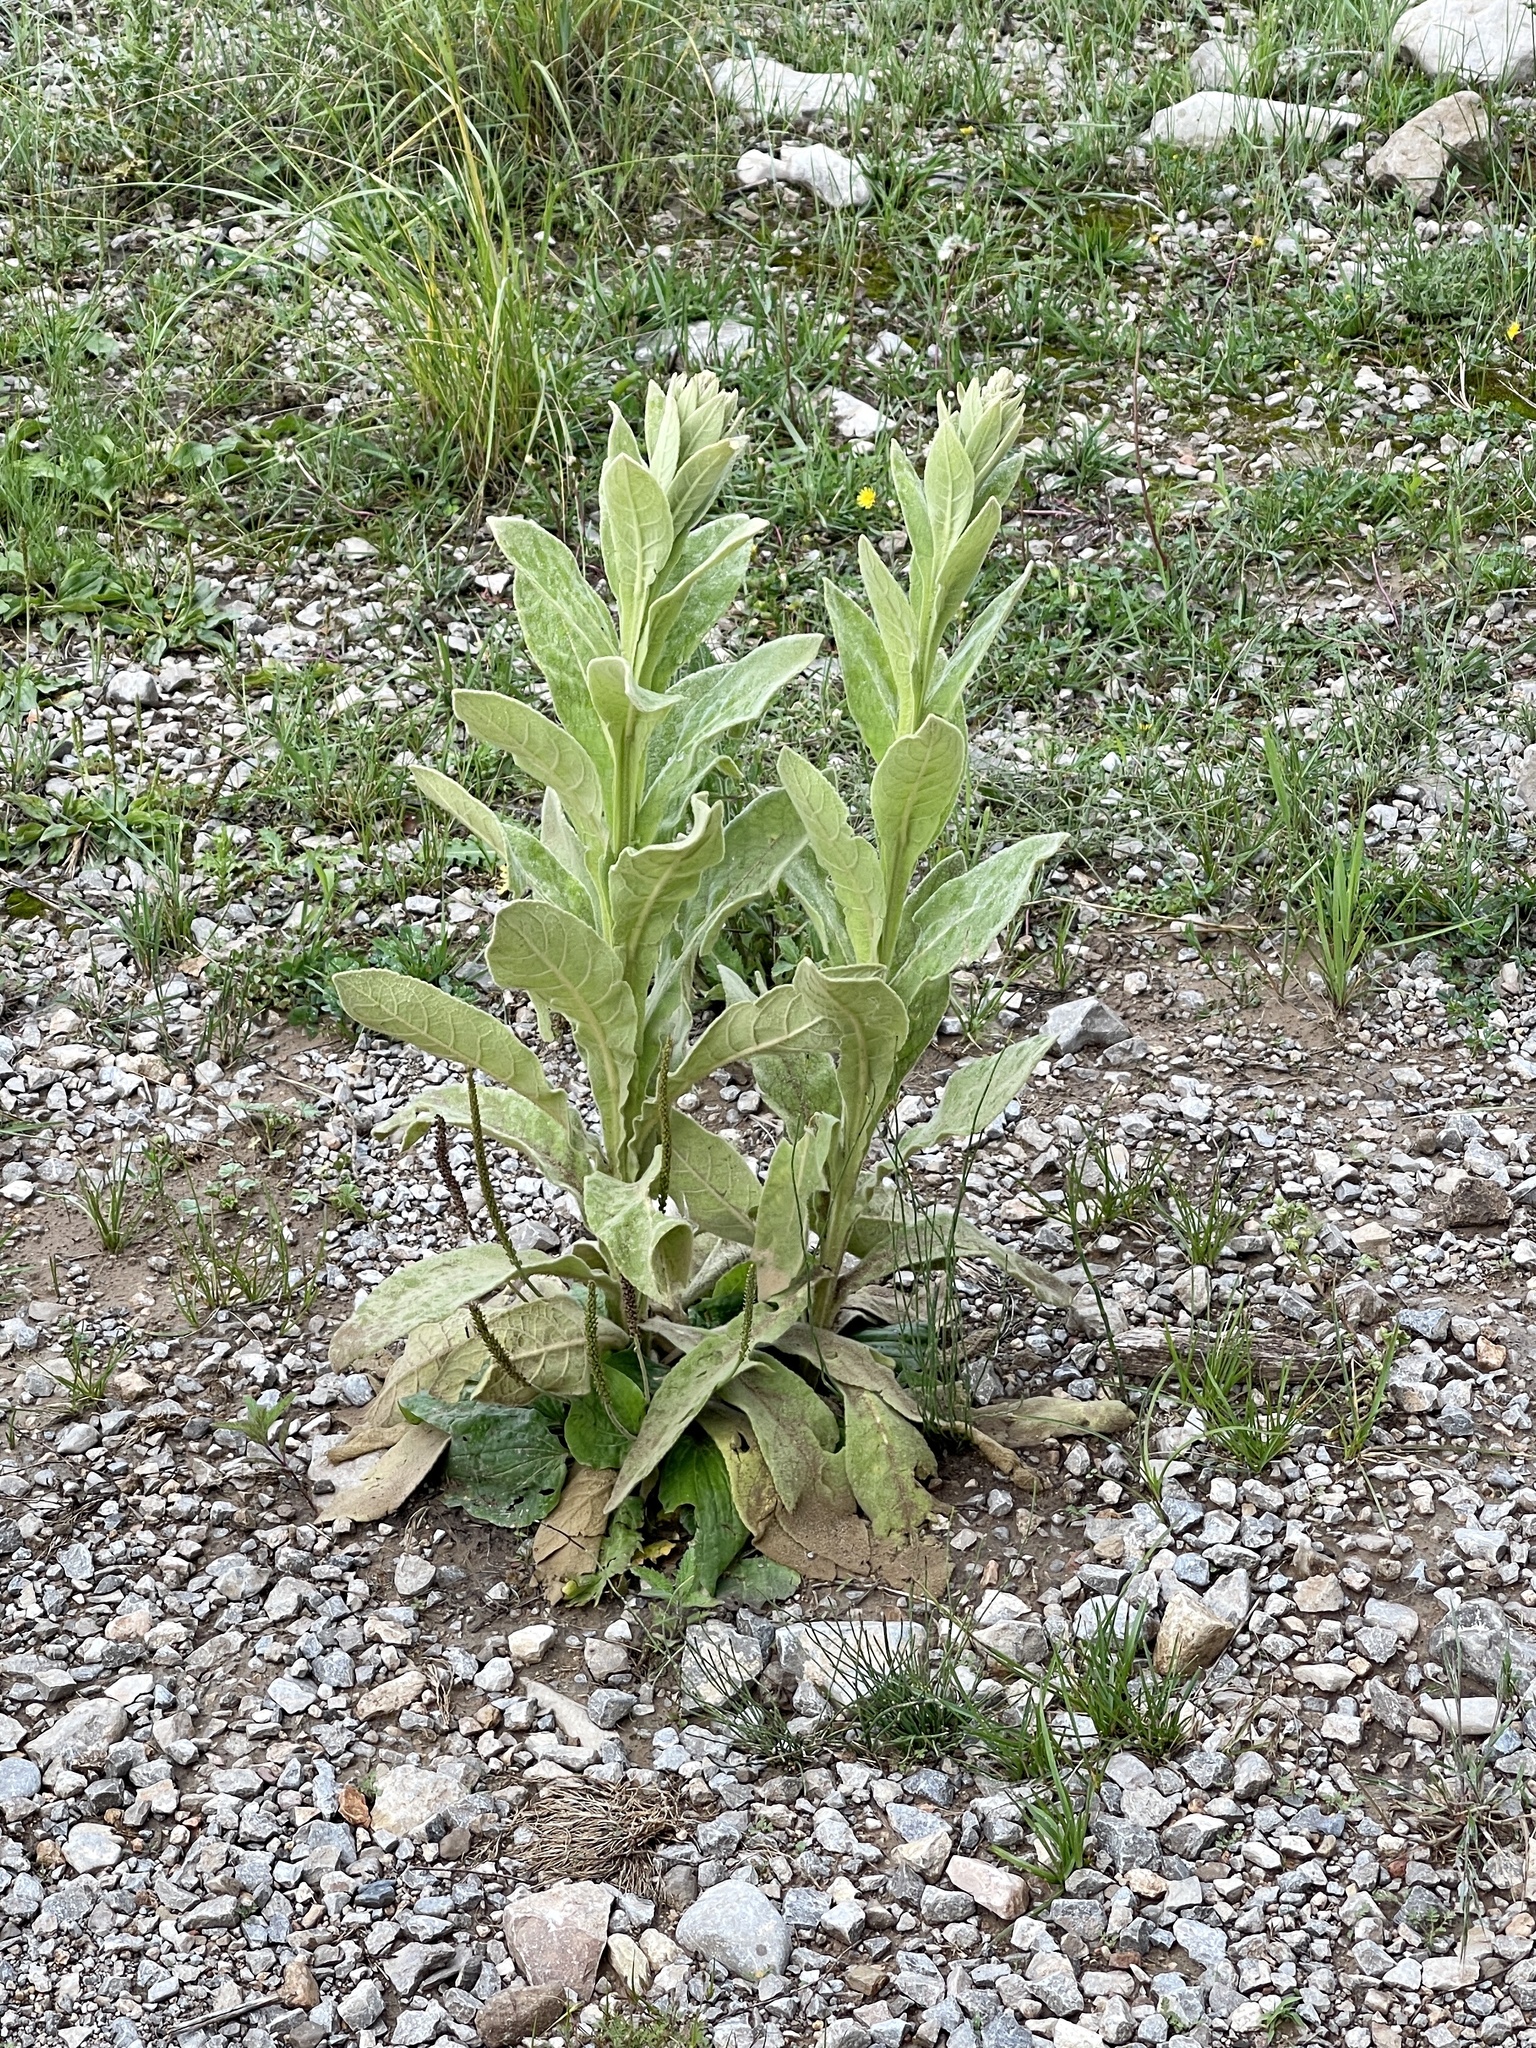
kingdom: Plantae
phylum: Tracheophyta
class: Magnoliopsida
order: Lamiales
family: Scrophulariaceae
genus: Verbascum
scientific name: Verbascum thapsus
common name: Common mullein
